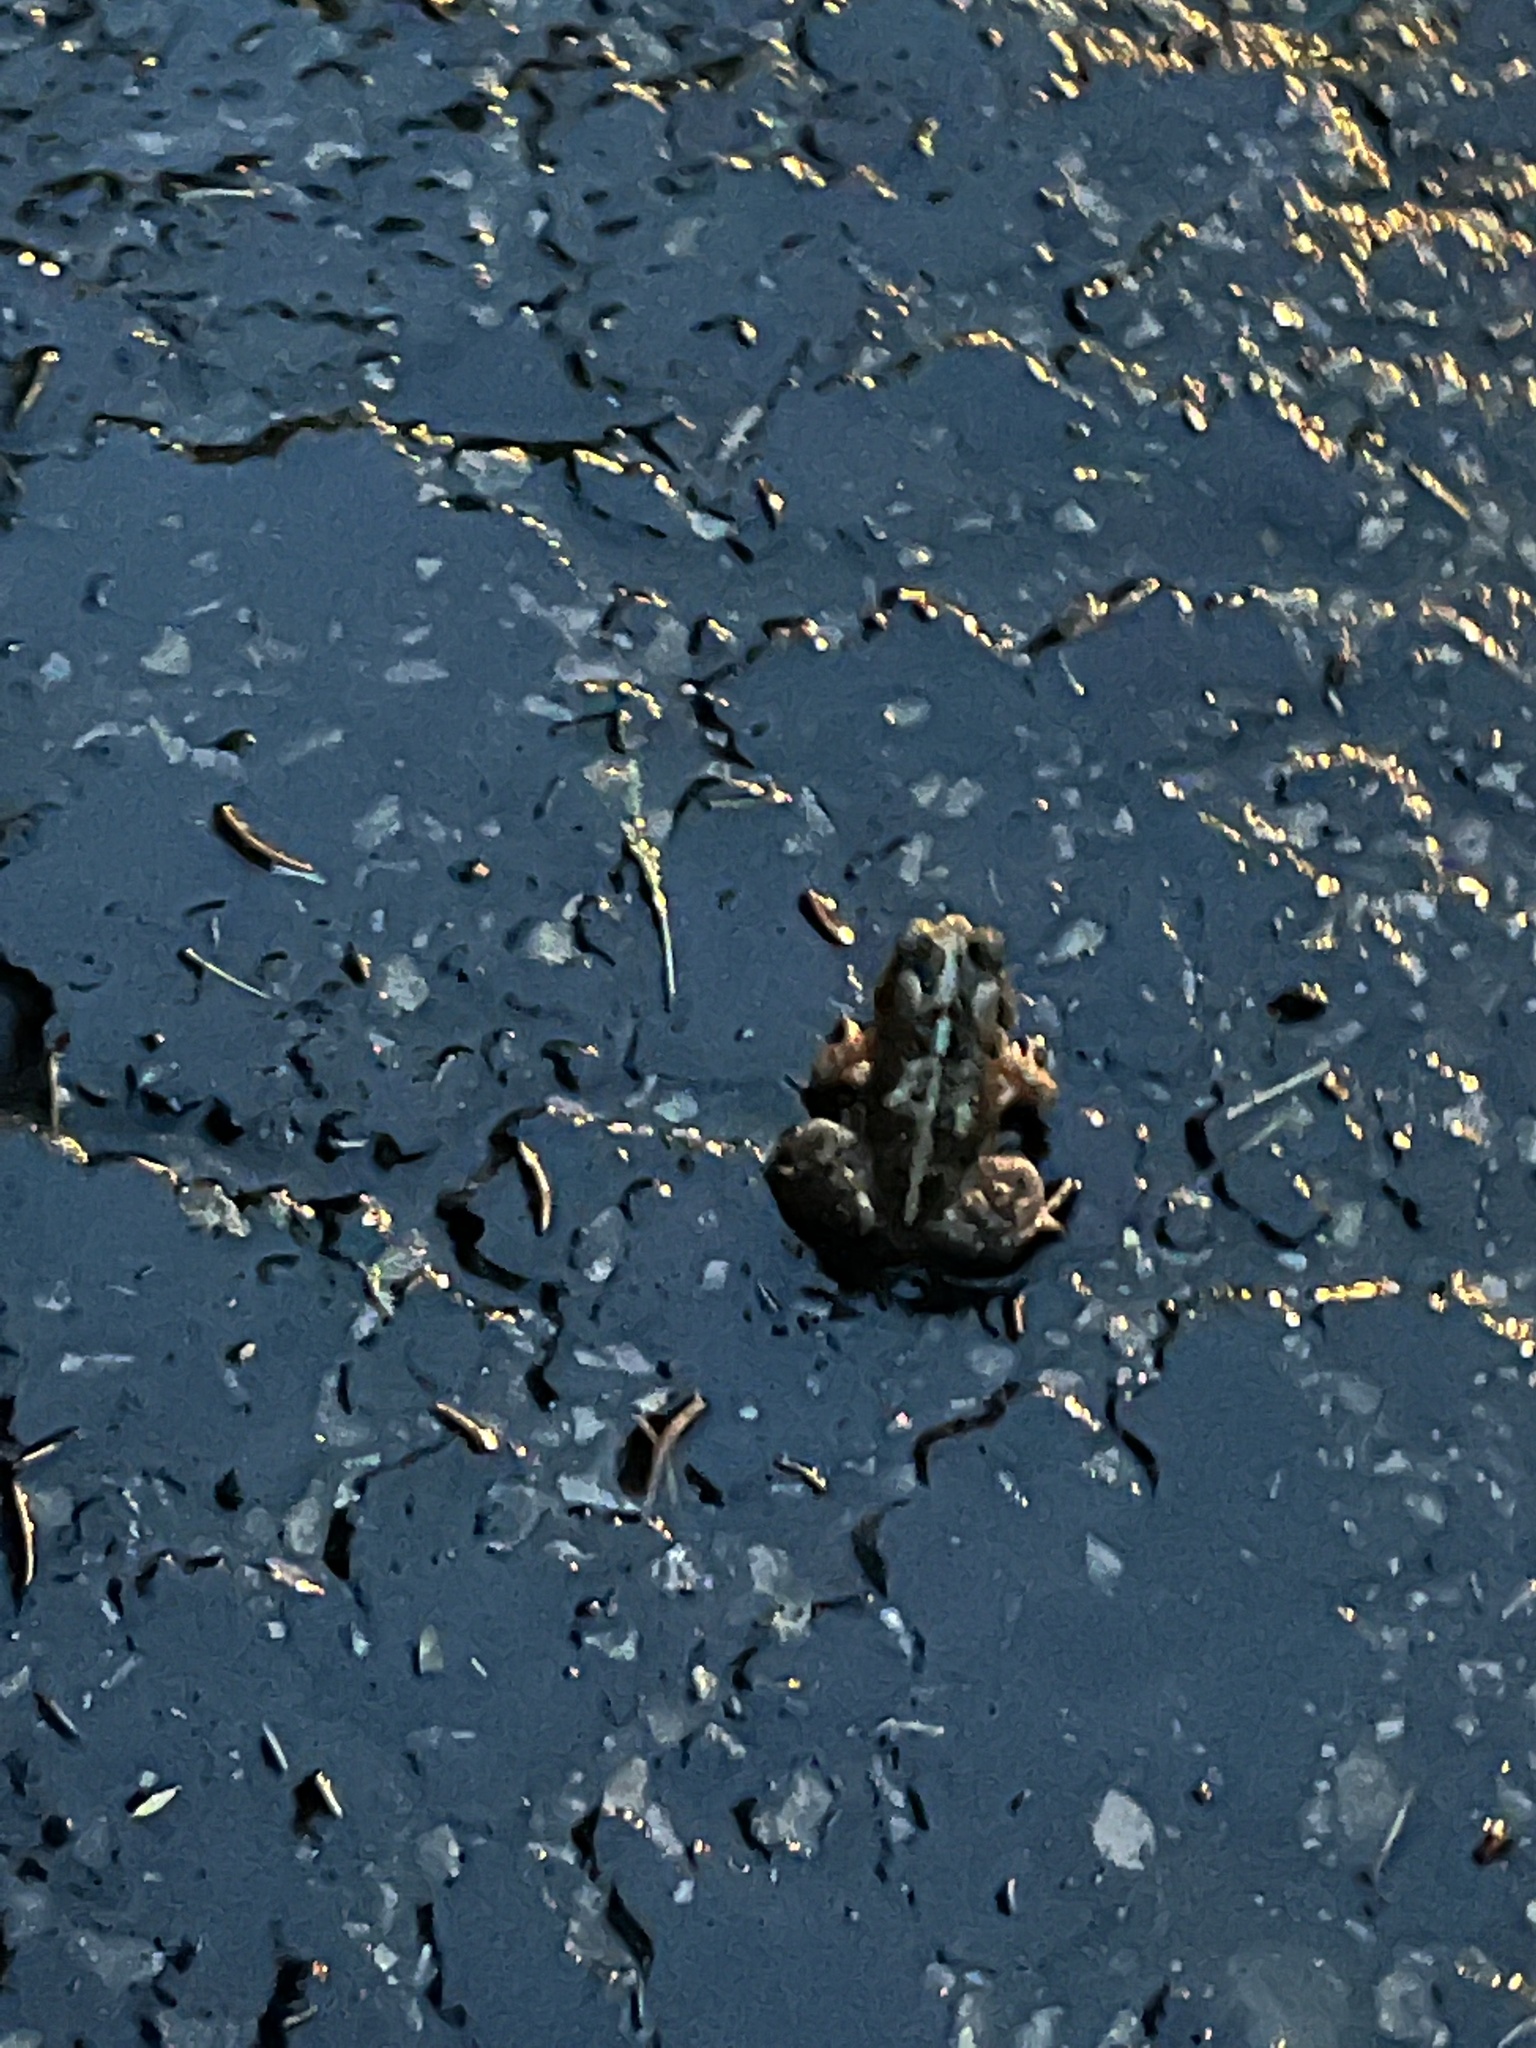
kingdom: Animalia
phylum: Chordata
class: Amphibia
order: Anura
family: Bufonidae
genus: Anaxyrus
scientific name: Anaxyrus americanus
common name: American toad
